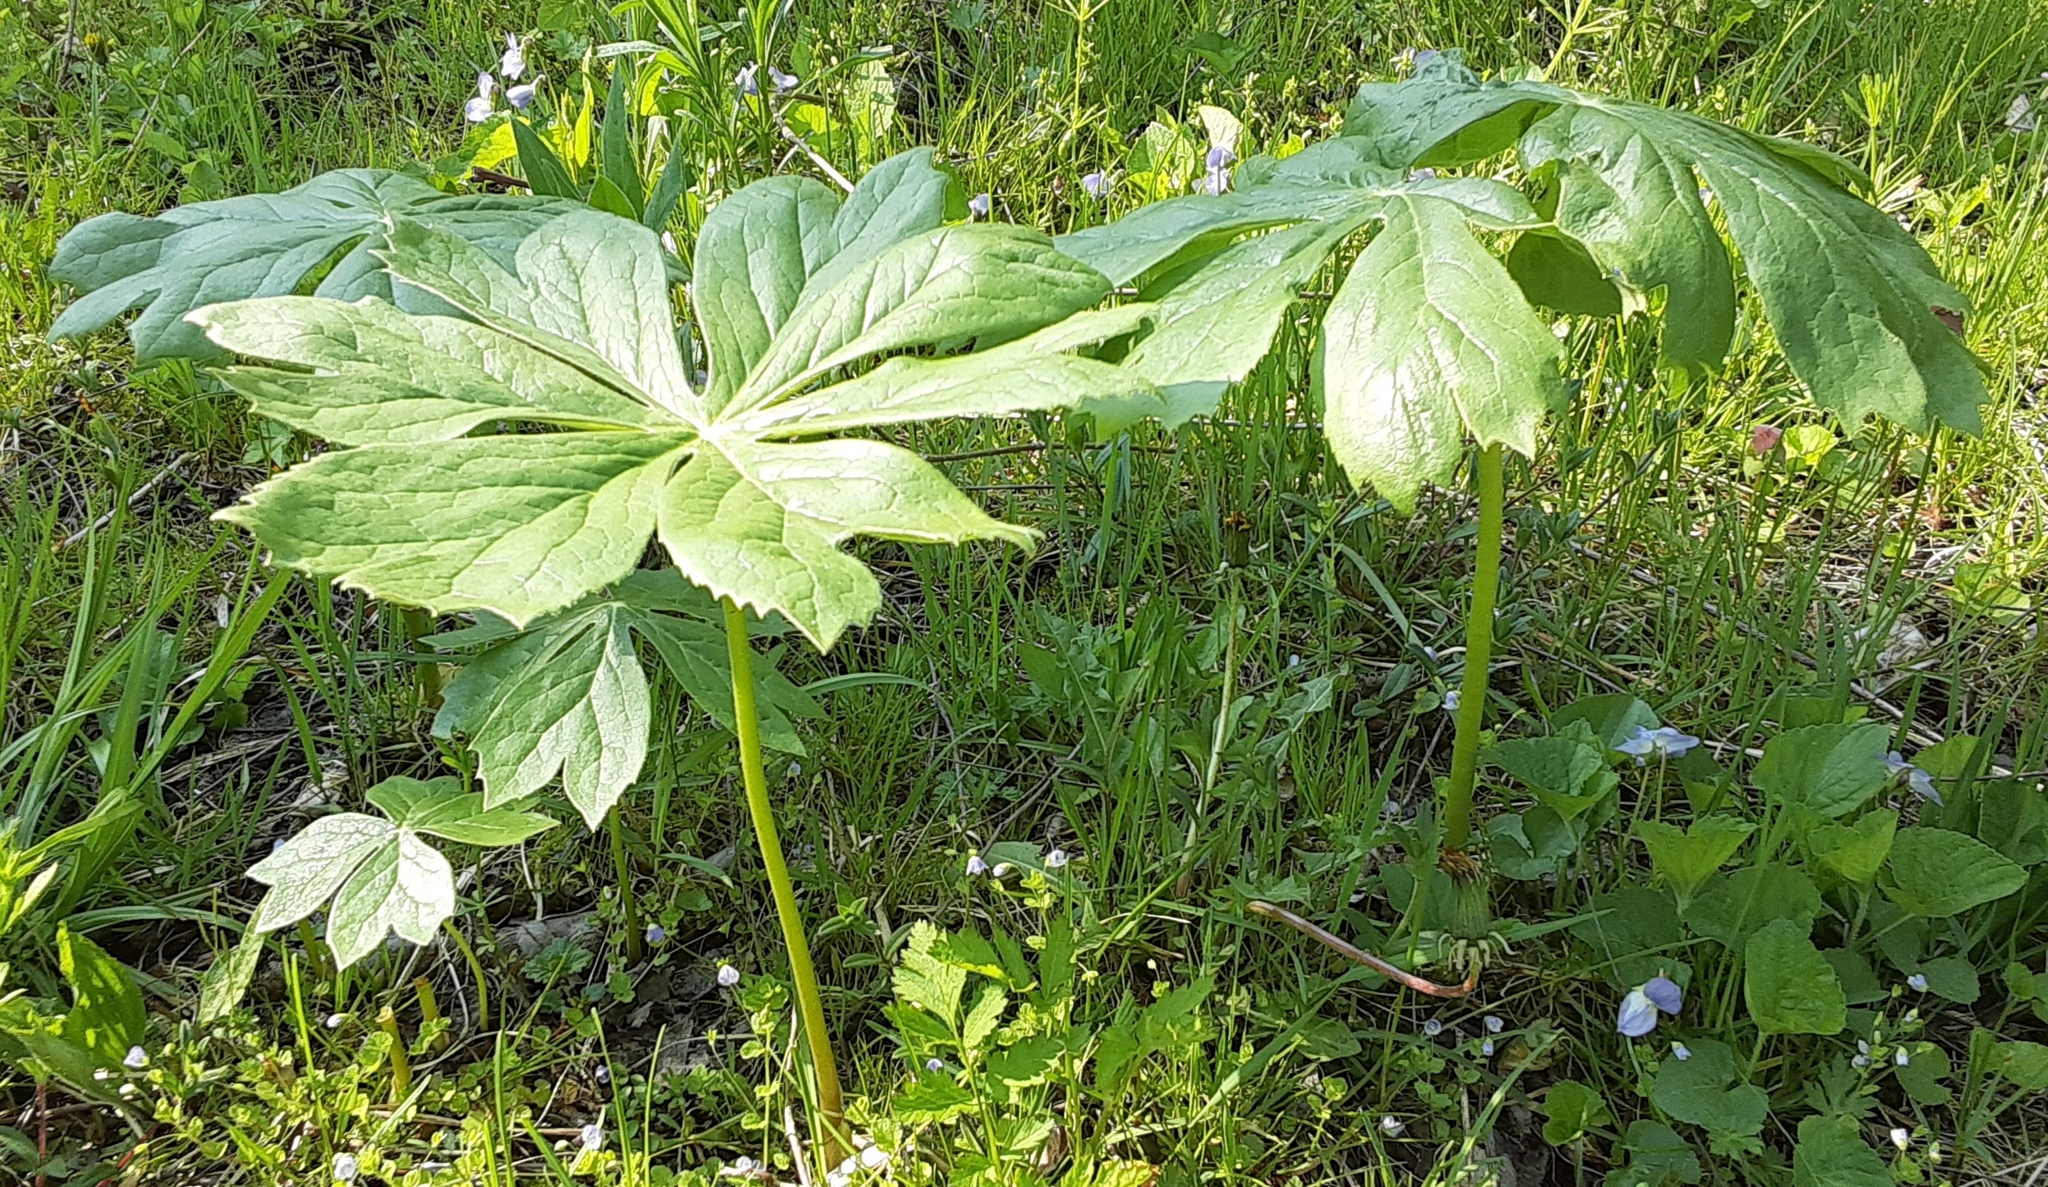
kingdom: Plantae
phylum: Tracheophyta
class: Magnoliopsida
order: Ranunculales
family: Berberidaceae
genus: Podophyllum
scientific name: Podophyllum peltatum
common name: Wild mandrake
